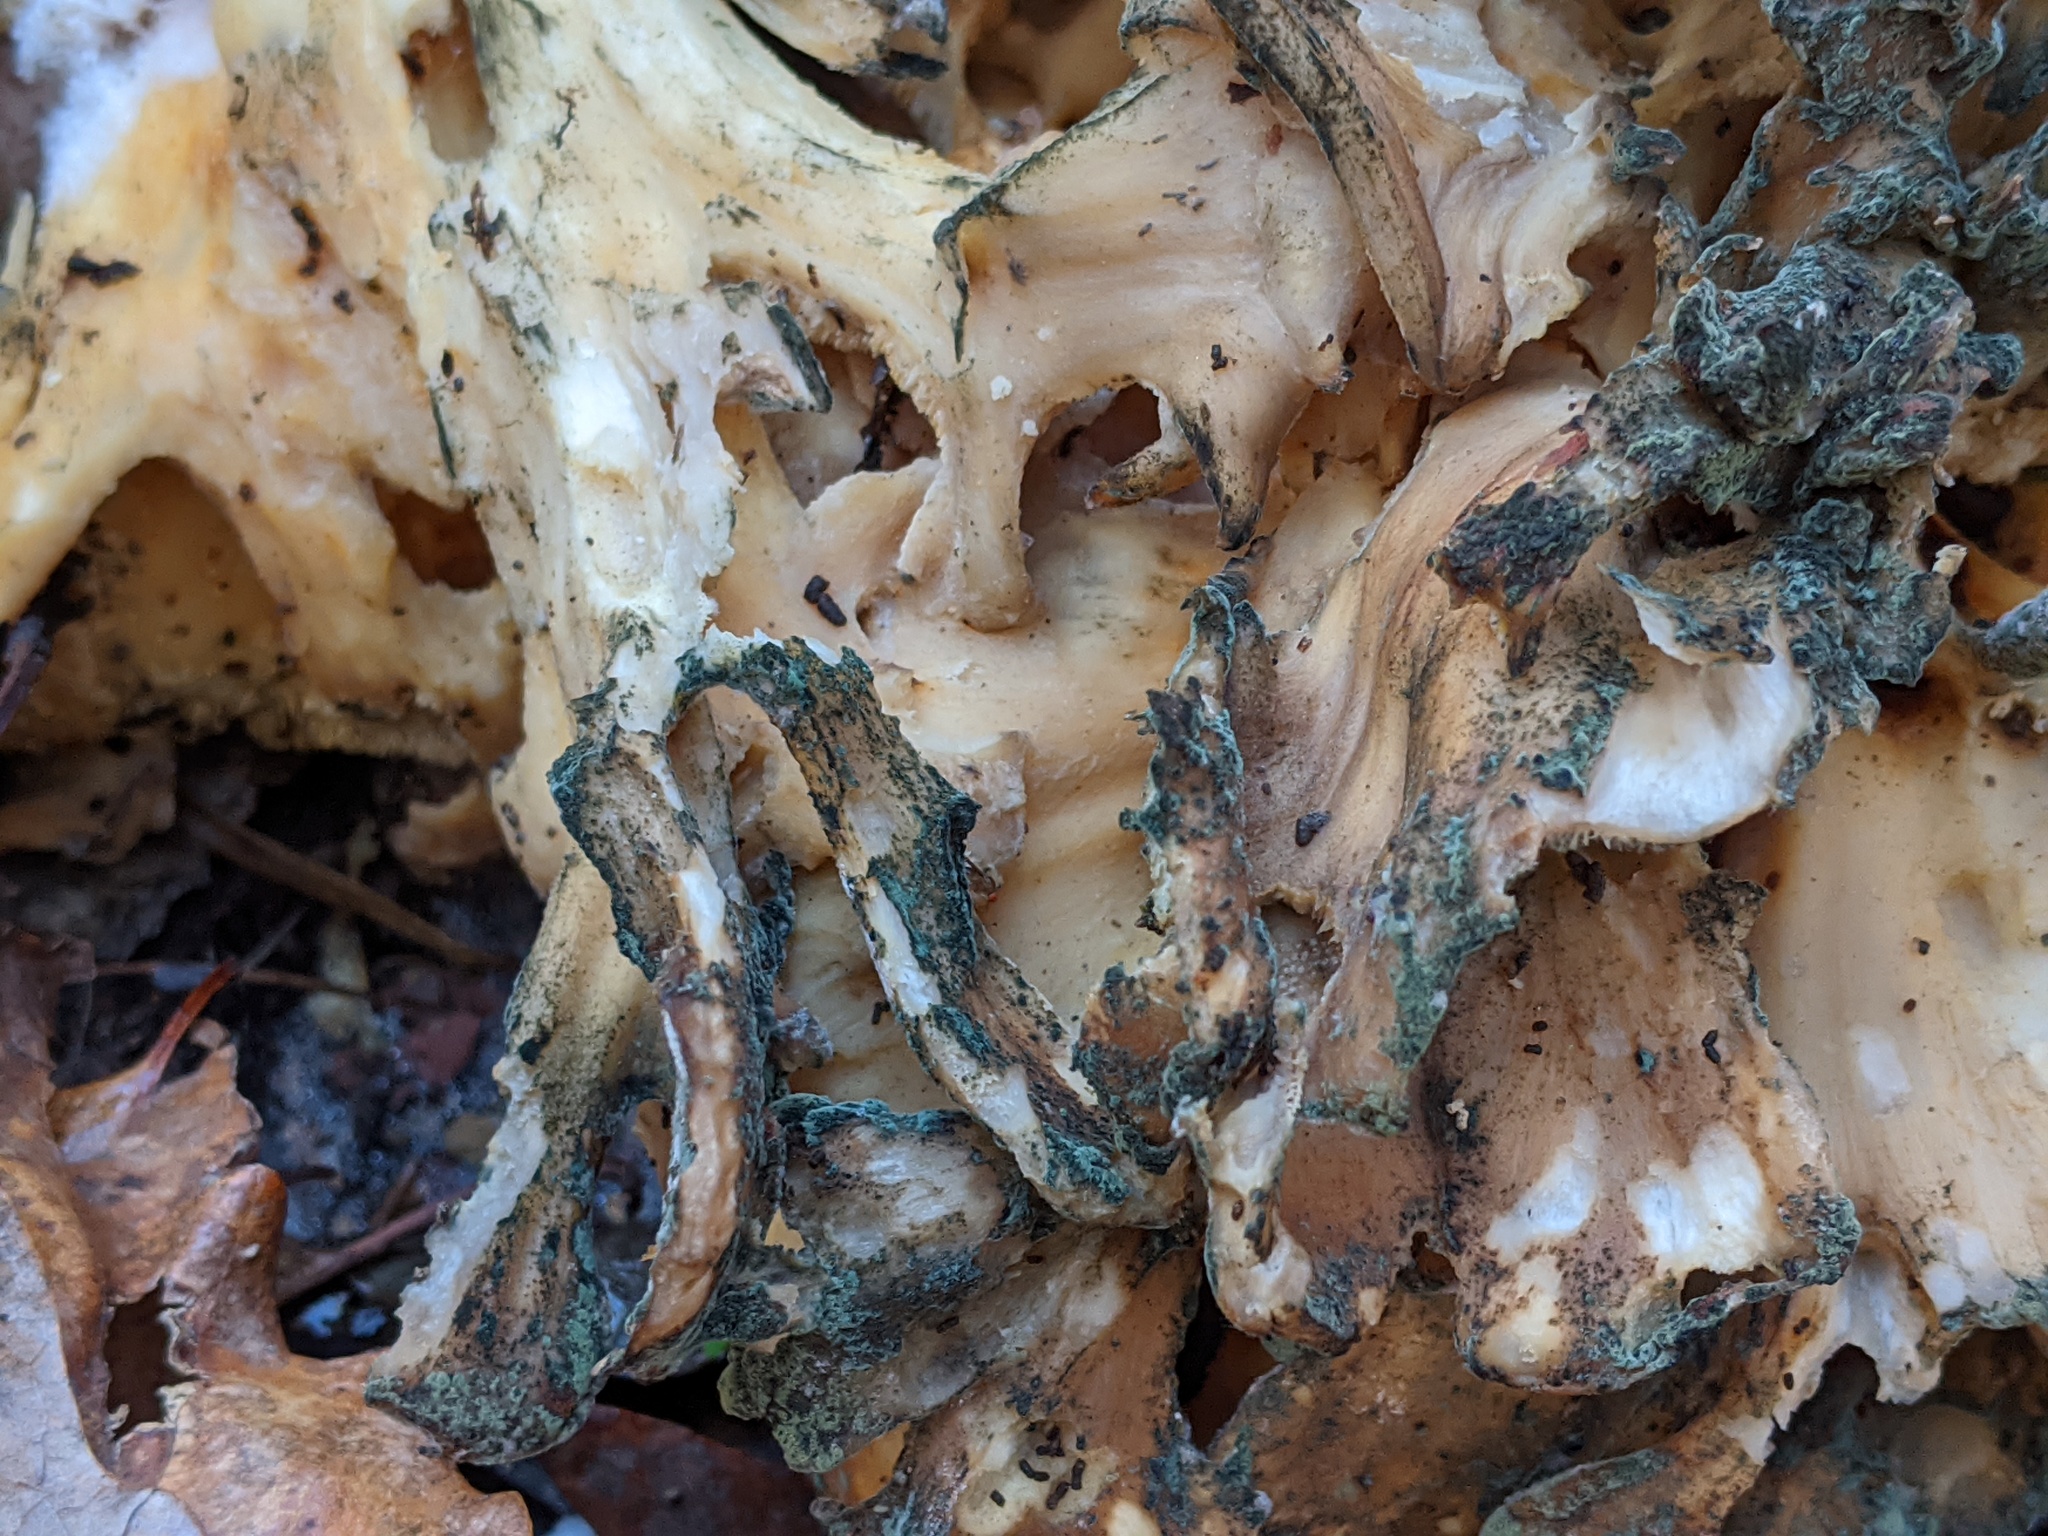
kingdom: Fungi
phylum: Basidiomycota
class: Agaricomycetes
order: Polyporales
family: Grifolaceae
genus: Grifola
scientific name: Grifola frondosa
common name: Hen of the woods
